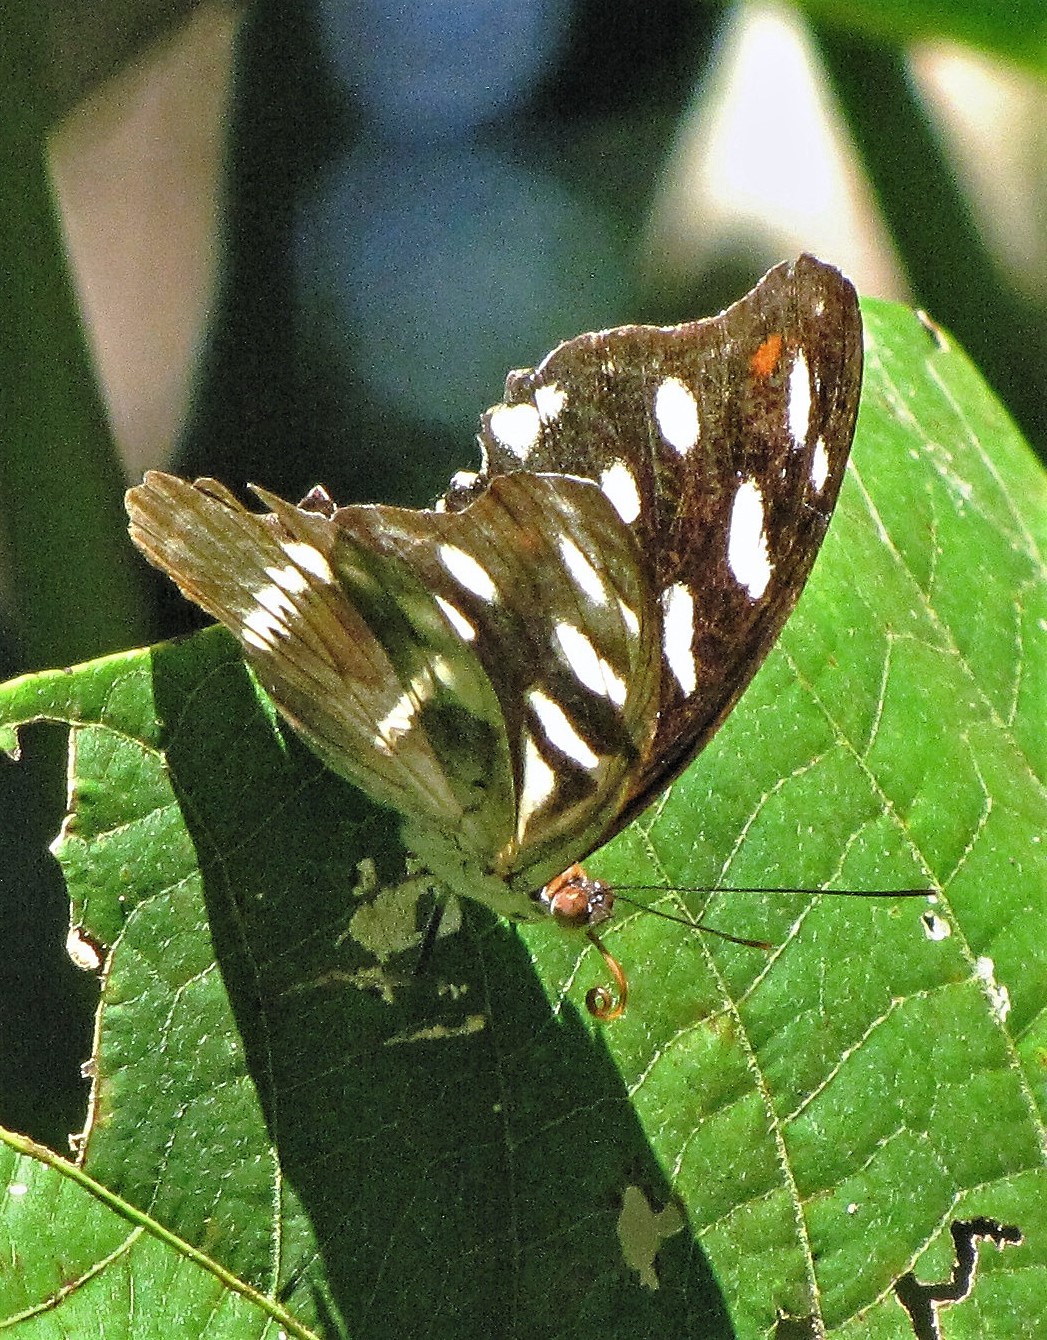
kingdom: Animalia
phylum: Arthropoda
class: Insecta
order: Lepidoptera
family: Nymphalidae
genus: Catonephele
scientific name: Catonephele acontius
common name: Unspotted firewing
